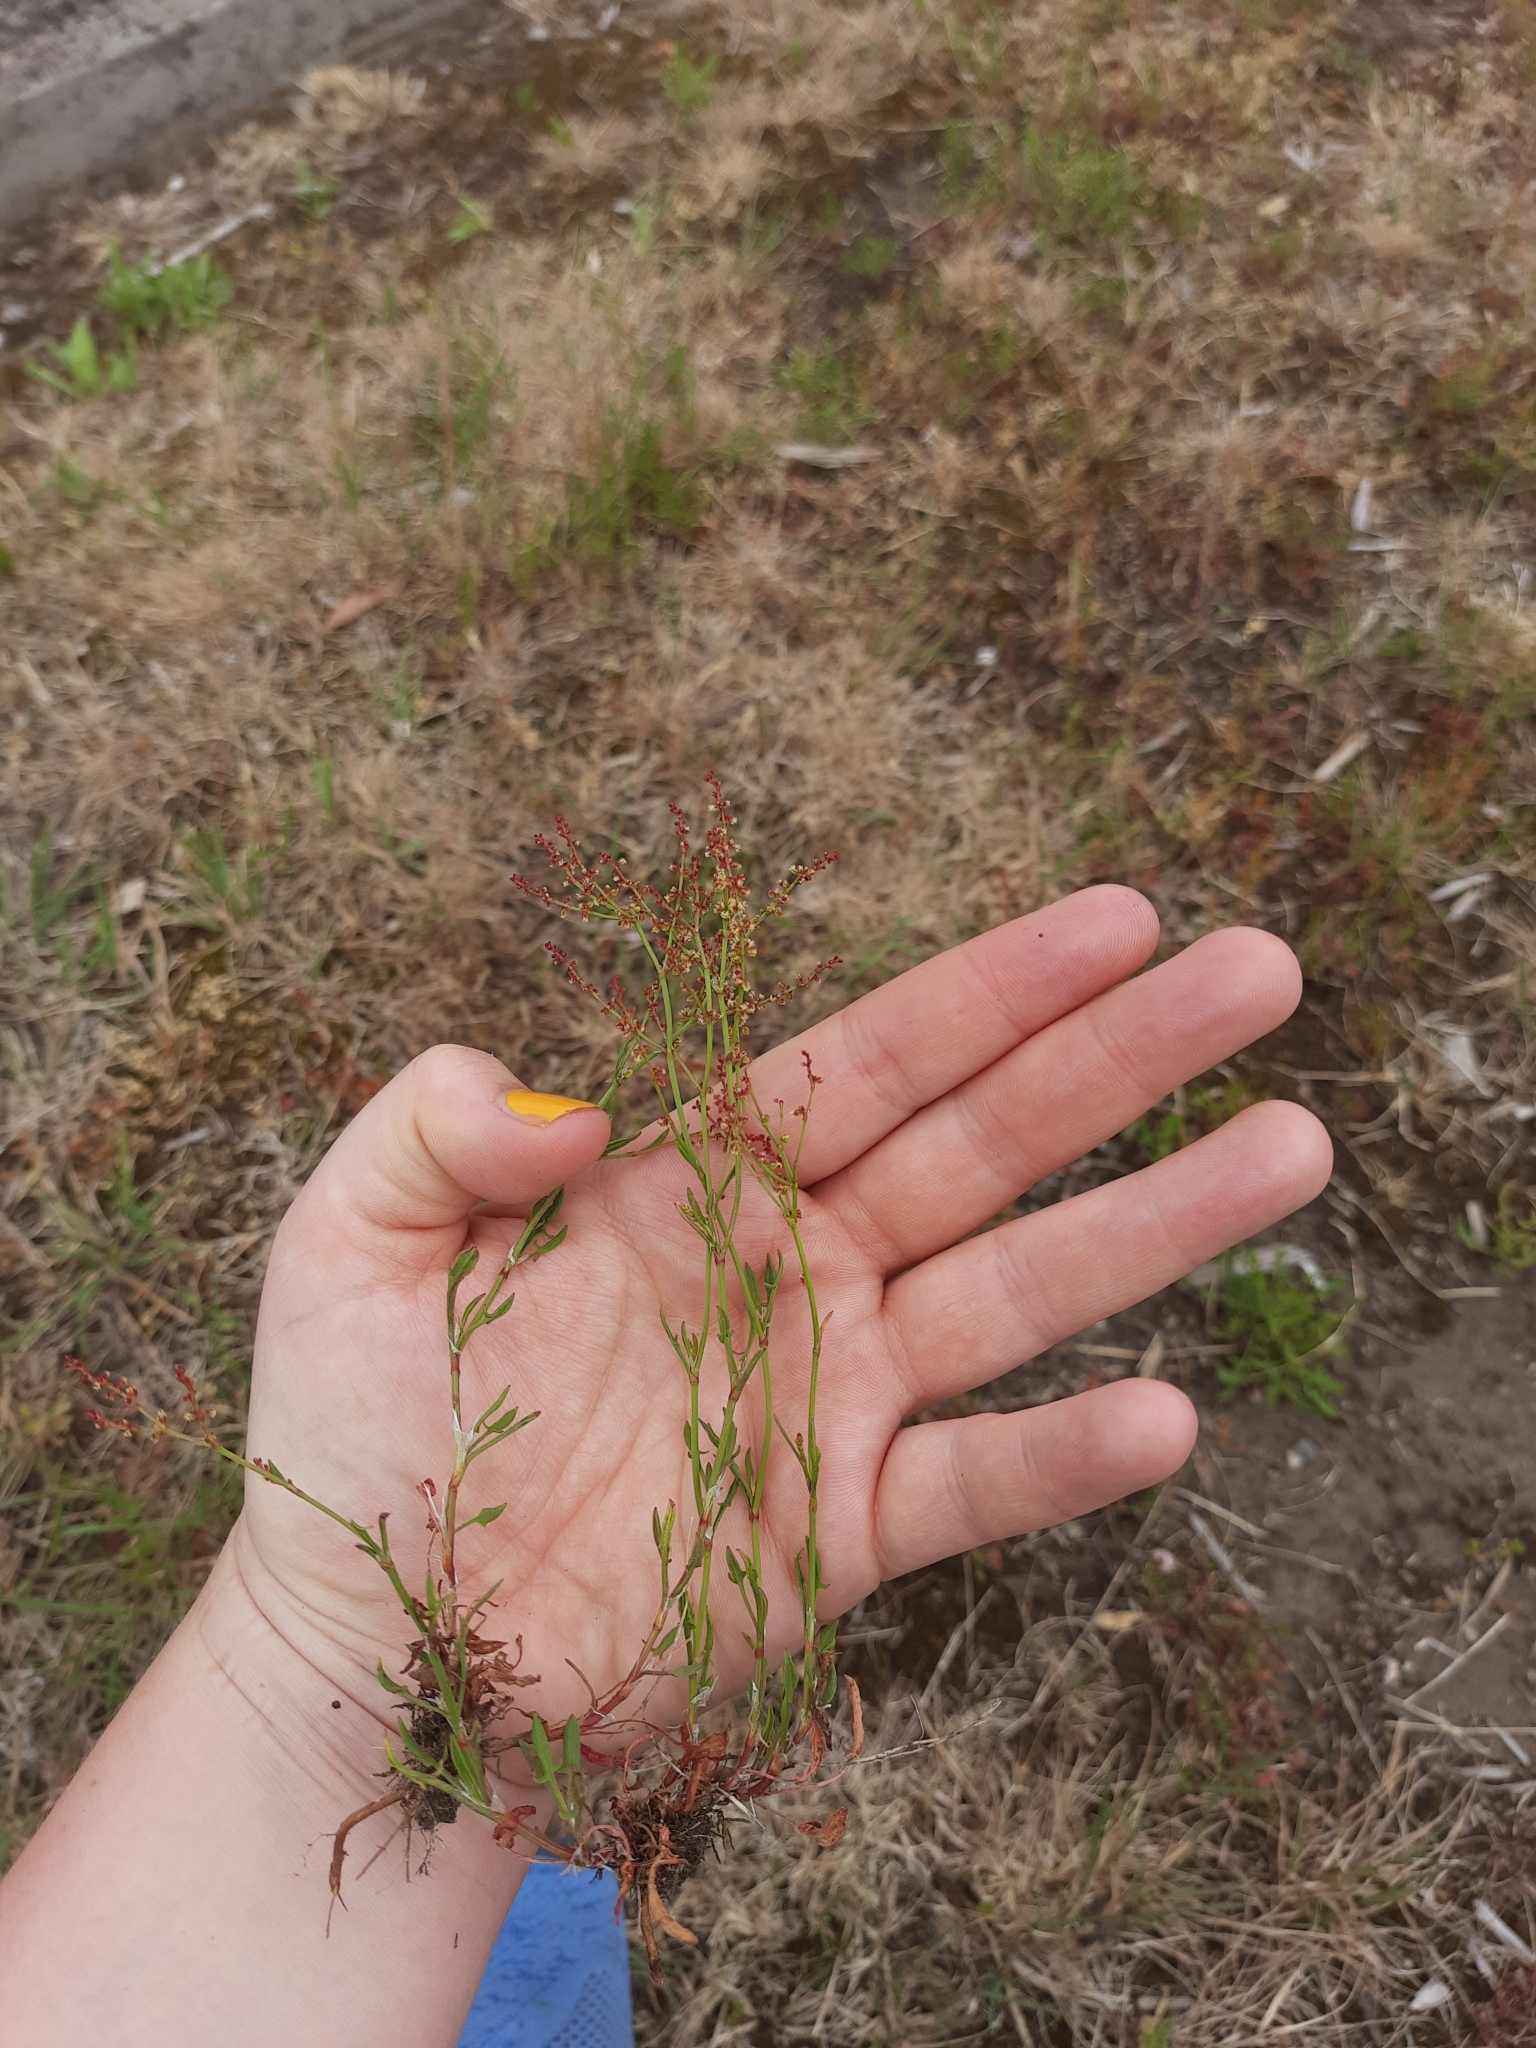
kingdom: Plantae
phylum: Tracheophyta
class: Magnoliopsida
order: Caryophyllales
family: Polygonaceae
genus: Rumex
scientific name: Rumex acetosella
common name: Common sheep sorrel
